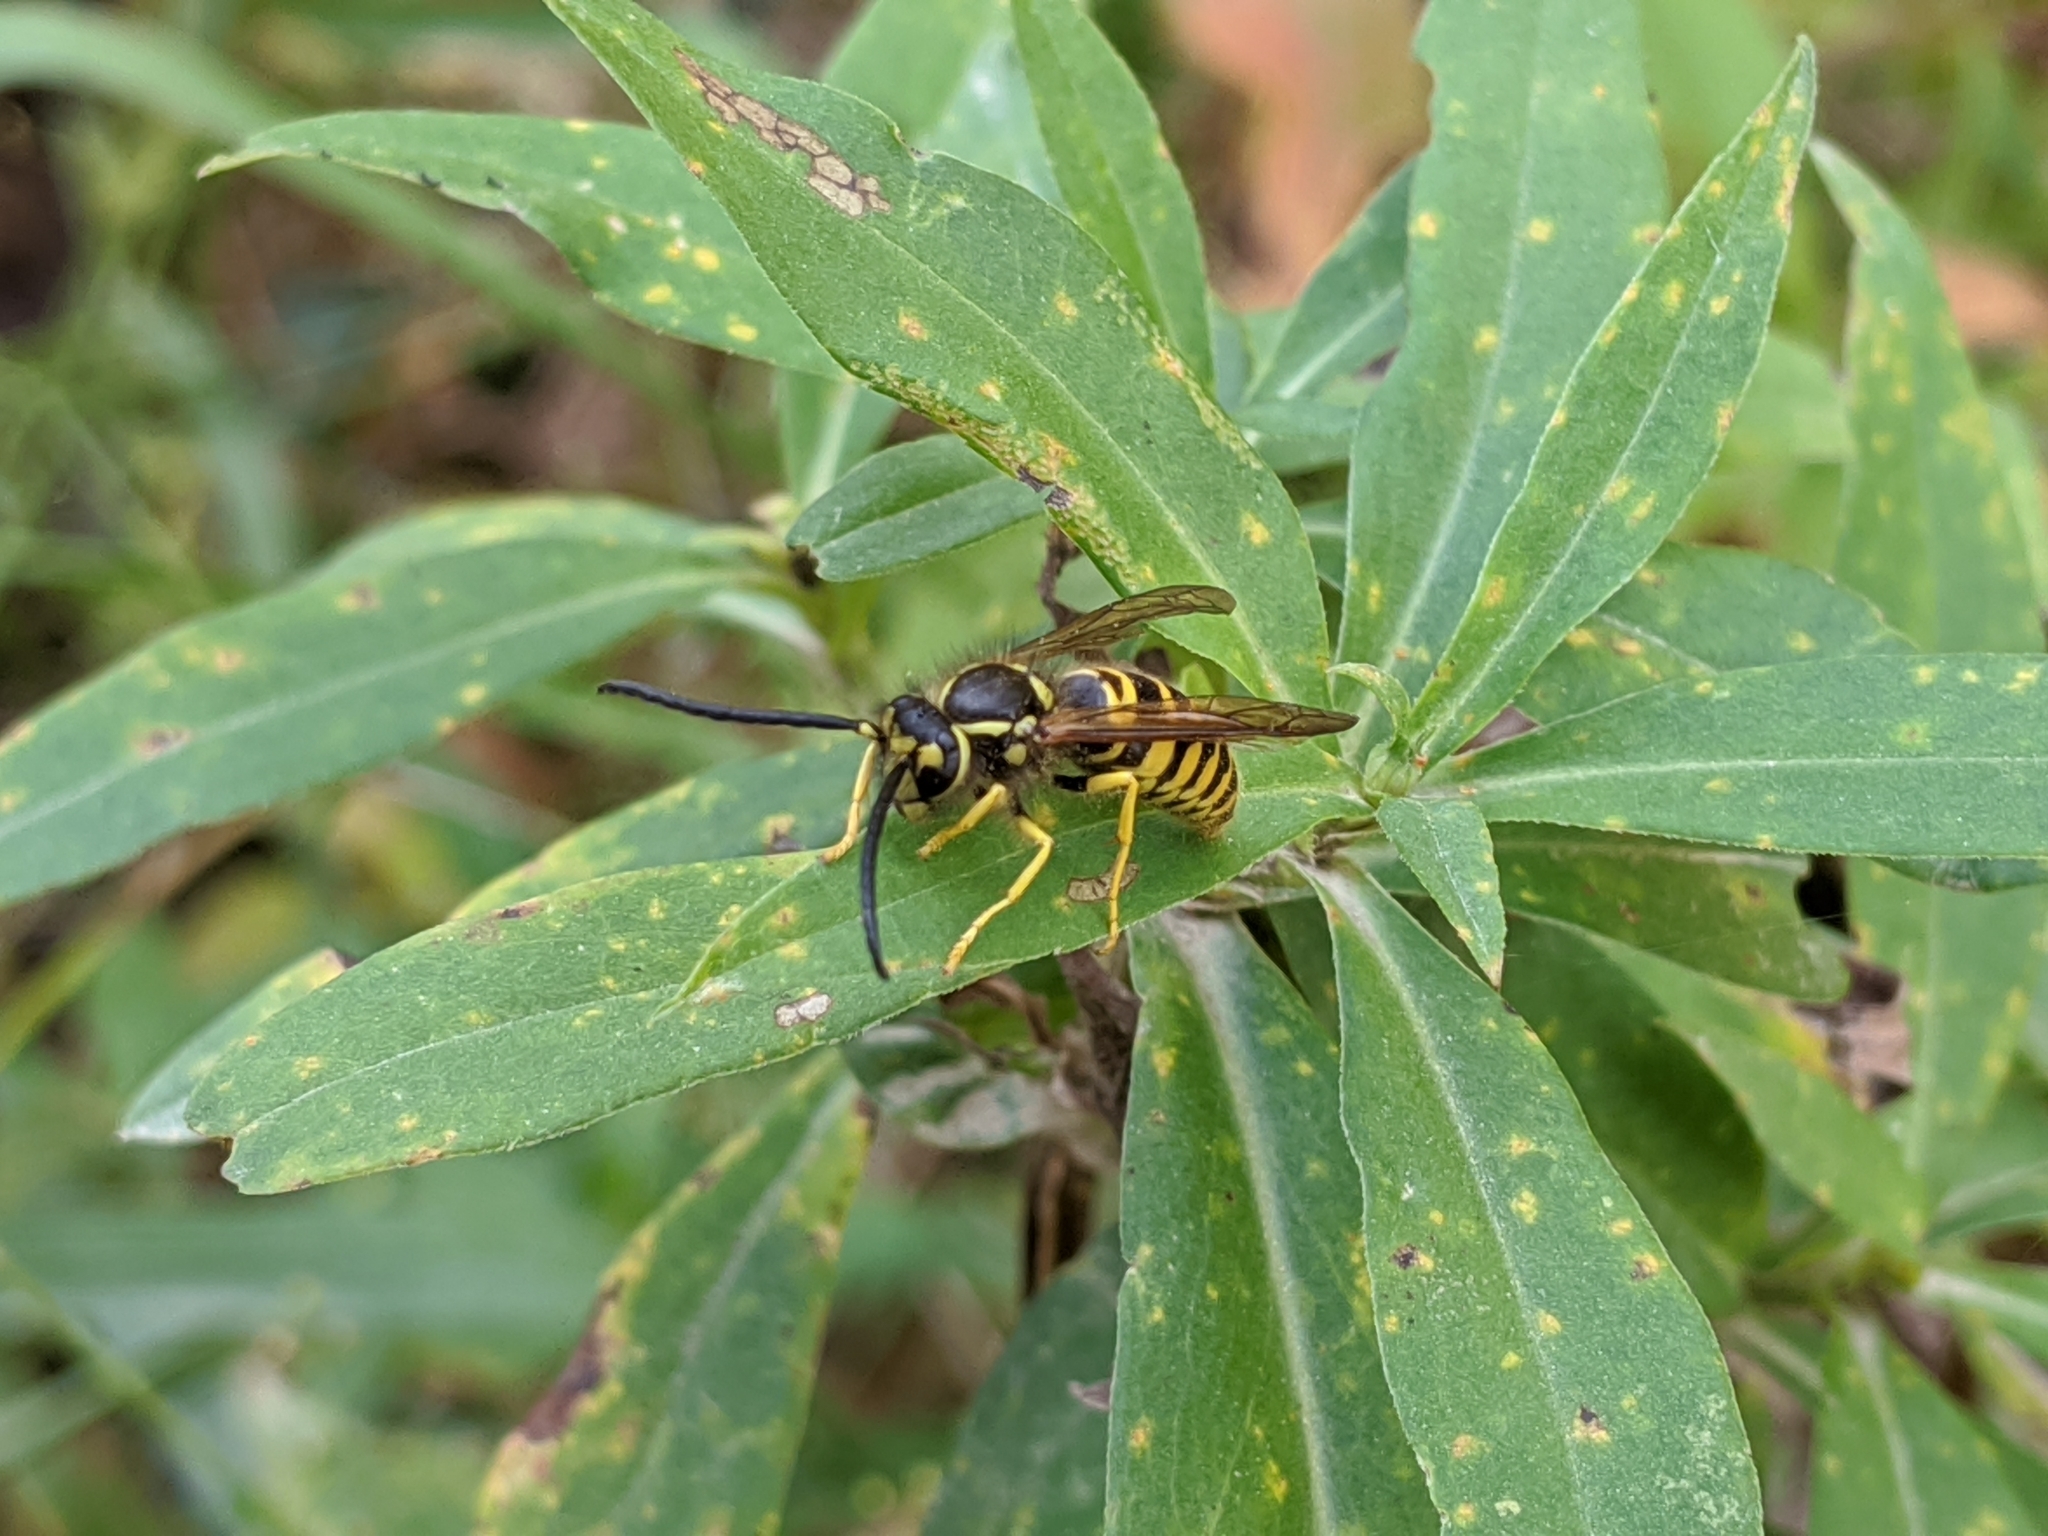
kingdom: Animalia
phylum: Arthropoda
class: Insecta
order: Hymenoptera
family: Vespidae
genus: Vespula
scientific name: Vespula maculifrons
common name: Eastern yellowjacket
